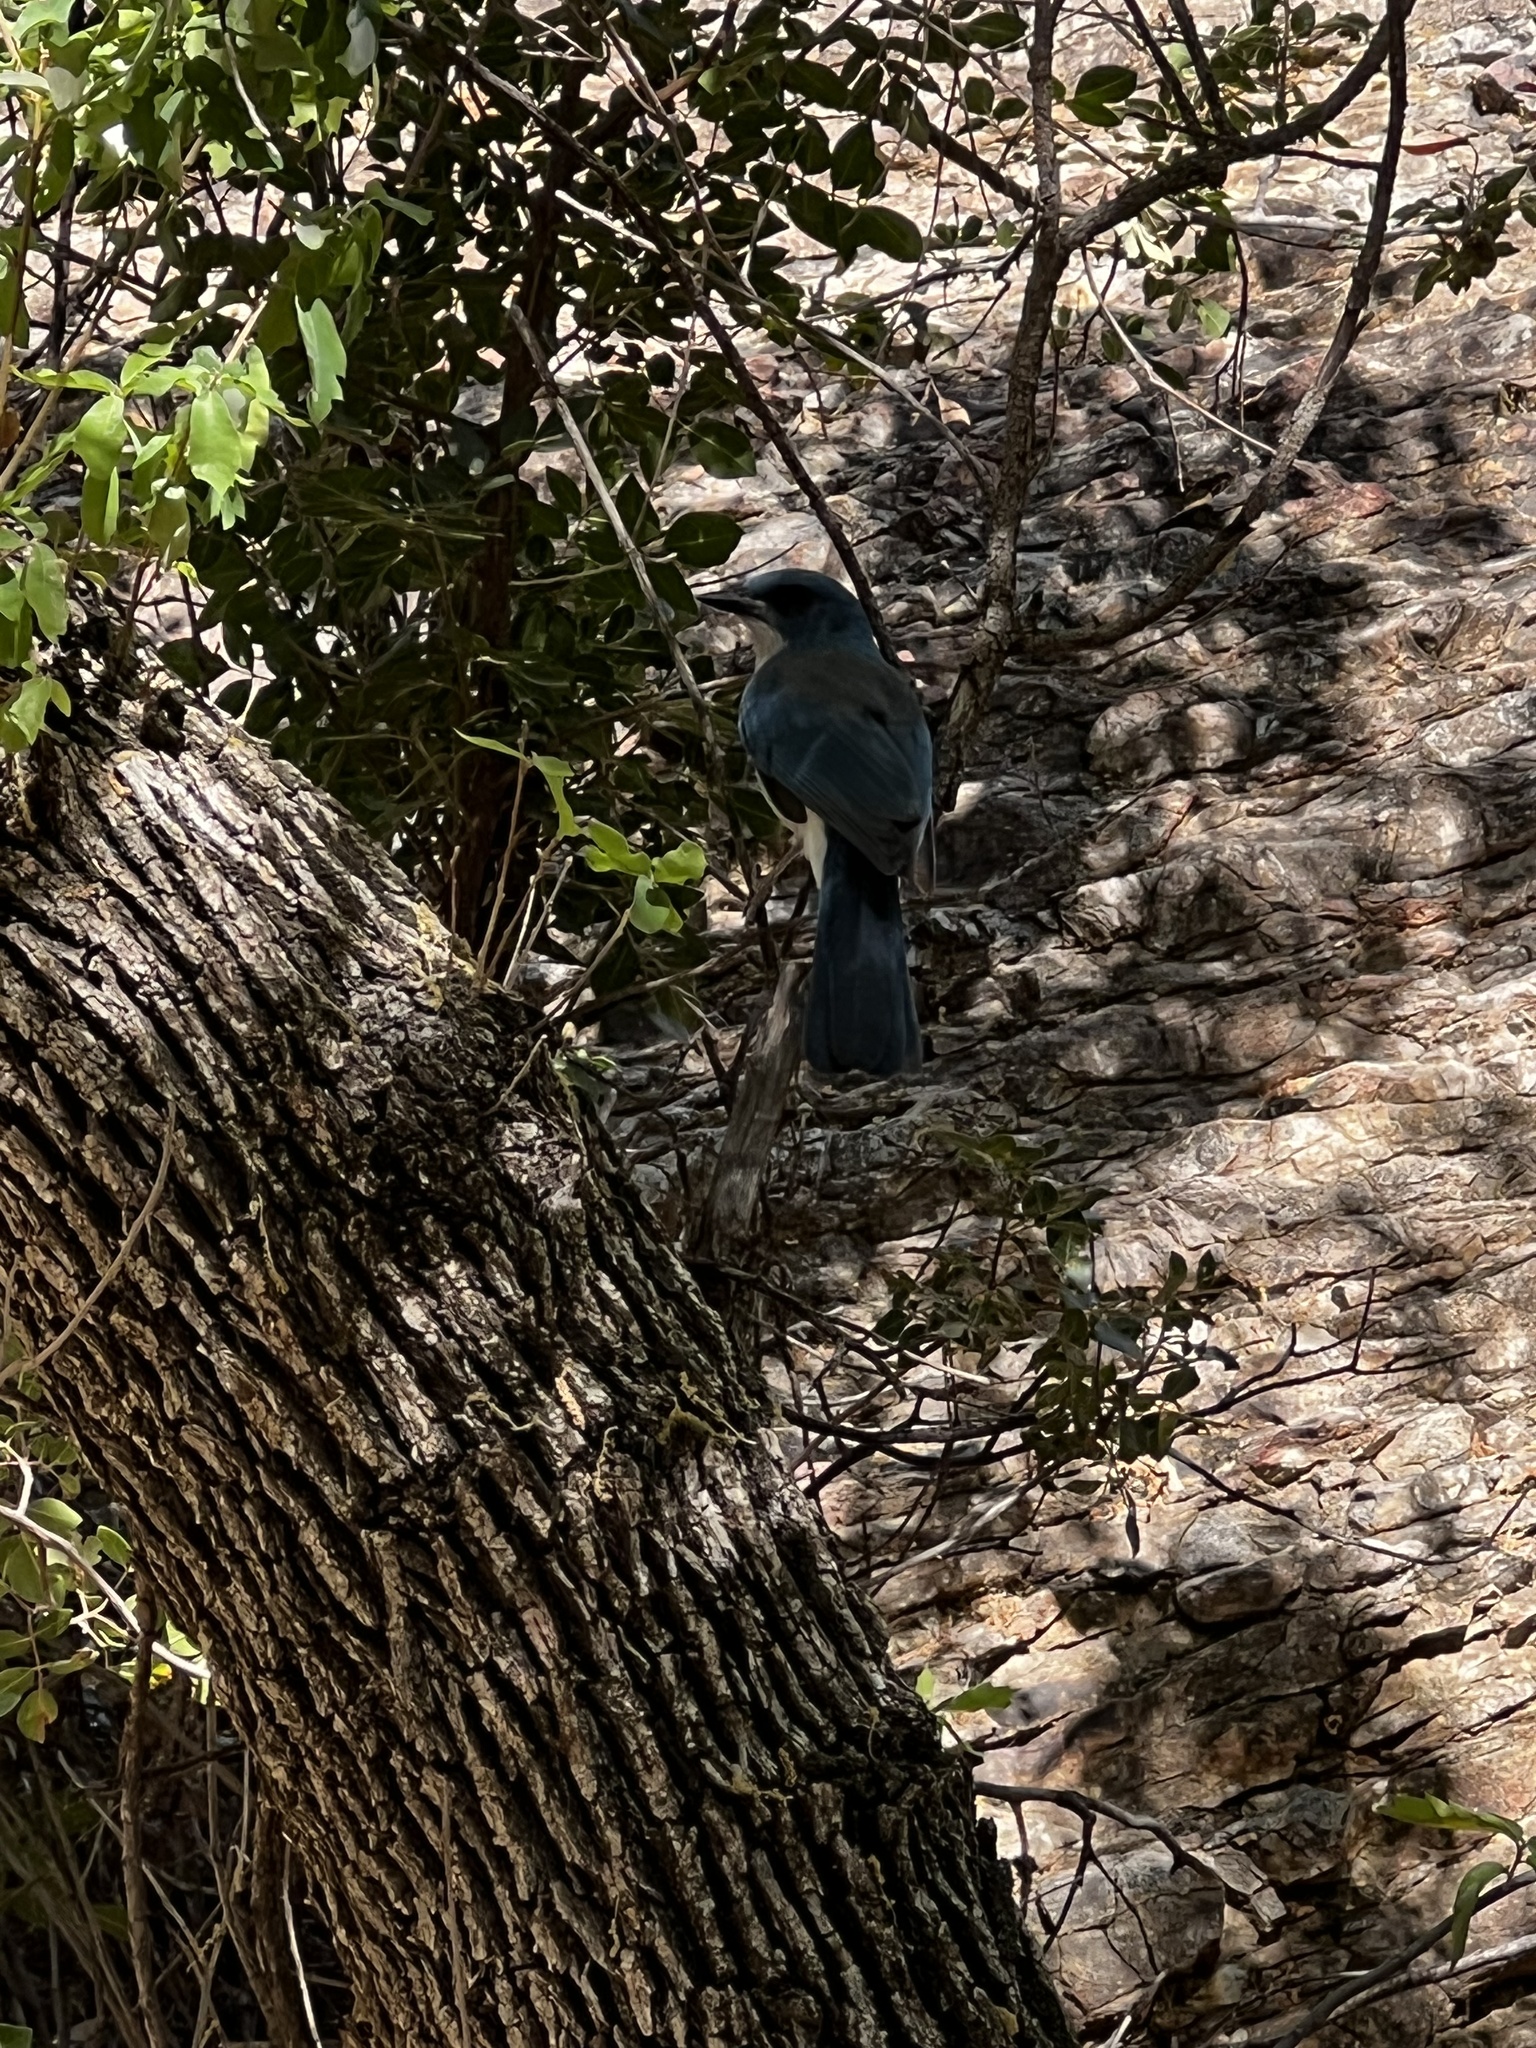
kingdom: Animalia
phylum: Chordata
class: Aves
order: Passeriformes
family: Corvidae
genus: Aphelocoma
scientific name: Aphelocoma wollweberi
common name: Mexican jay
